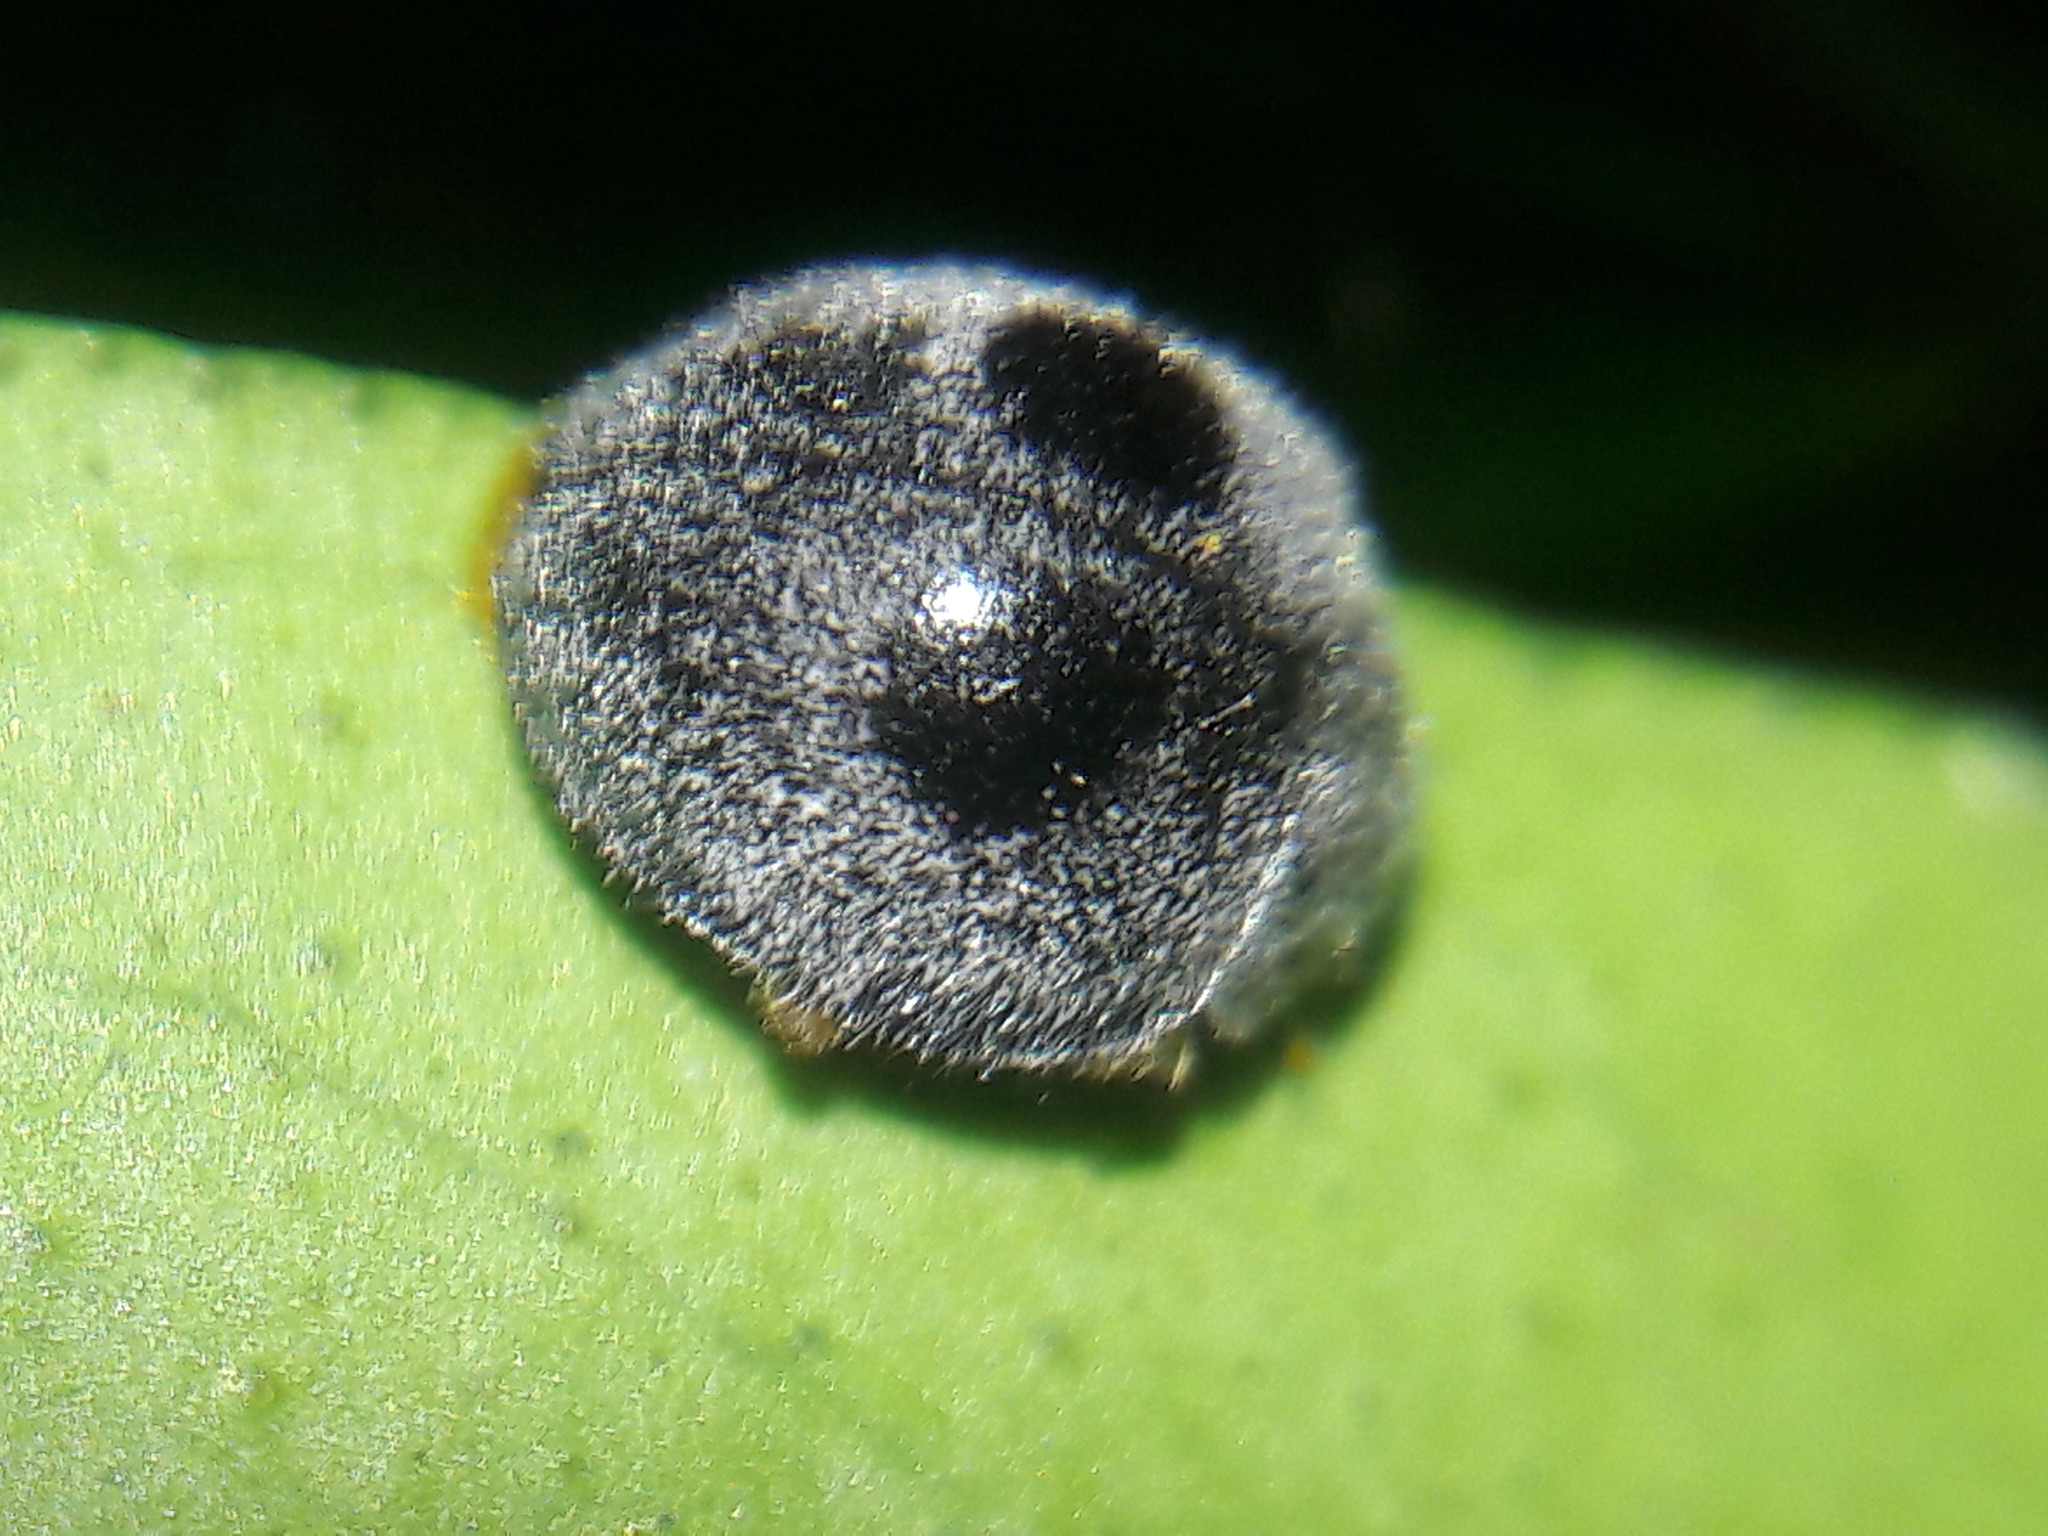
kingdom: Animalia
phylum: Arthropoda
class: Insecta
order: Coleoptera
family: Coccinellidae
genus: Azya
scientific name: Azya luteipes
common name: Ladybird beetle
